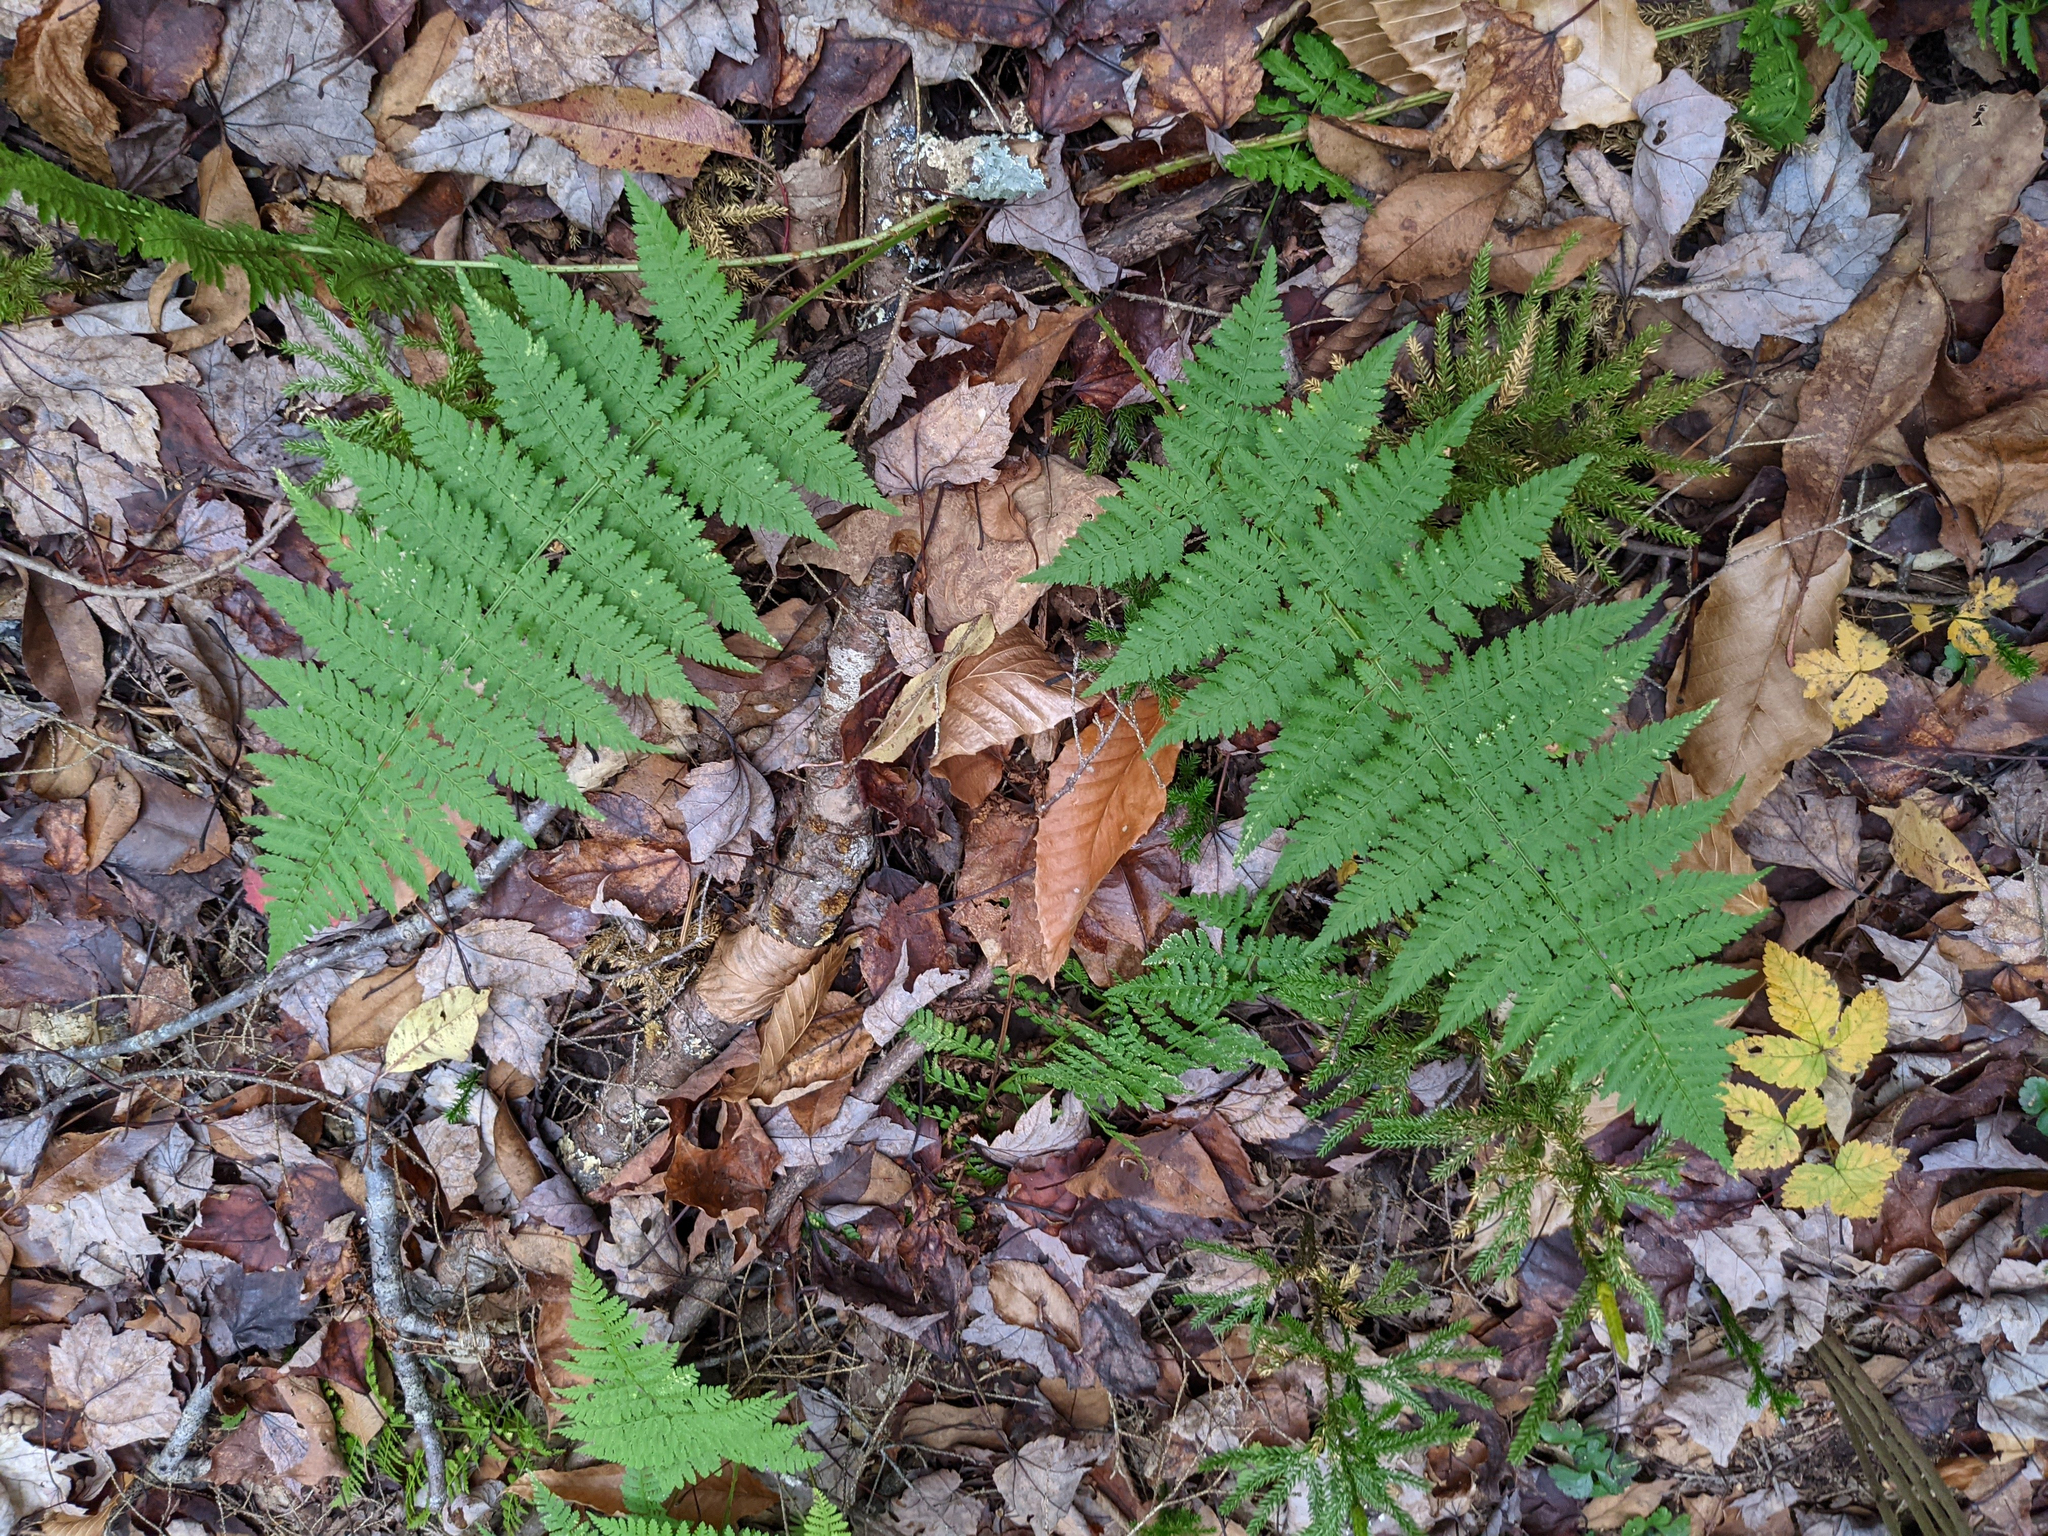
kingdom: Plantae
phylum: Tracheophyta
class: Polypodiopsida
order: Polypodiales
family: Dryopteridaceae
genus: Dryopteris
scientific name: Dryopteris intermedia
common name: Evergreen wood fern
